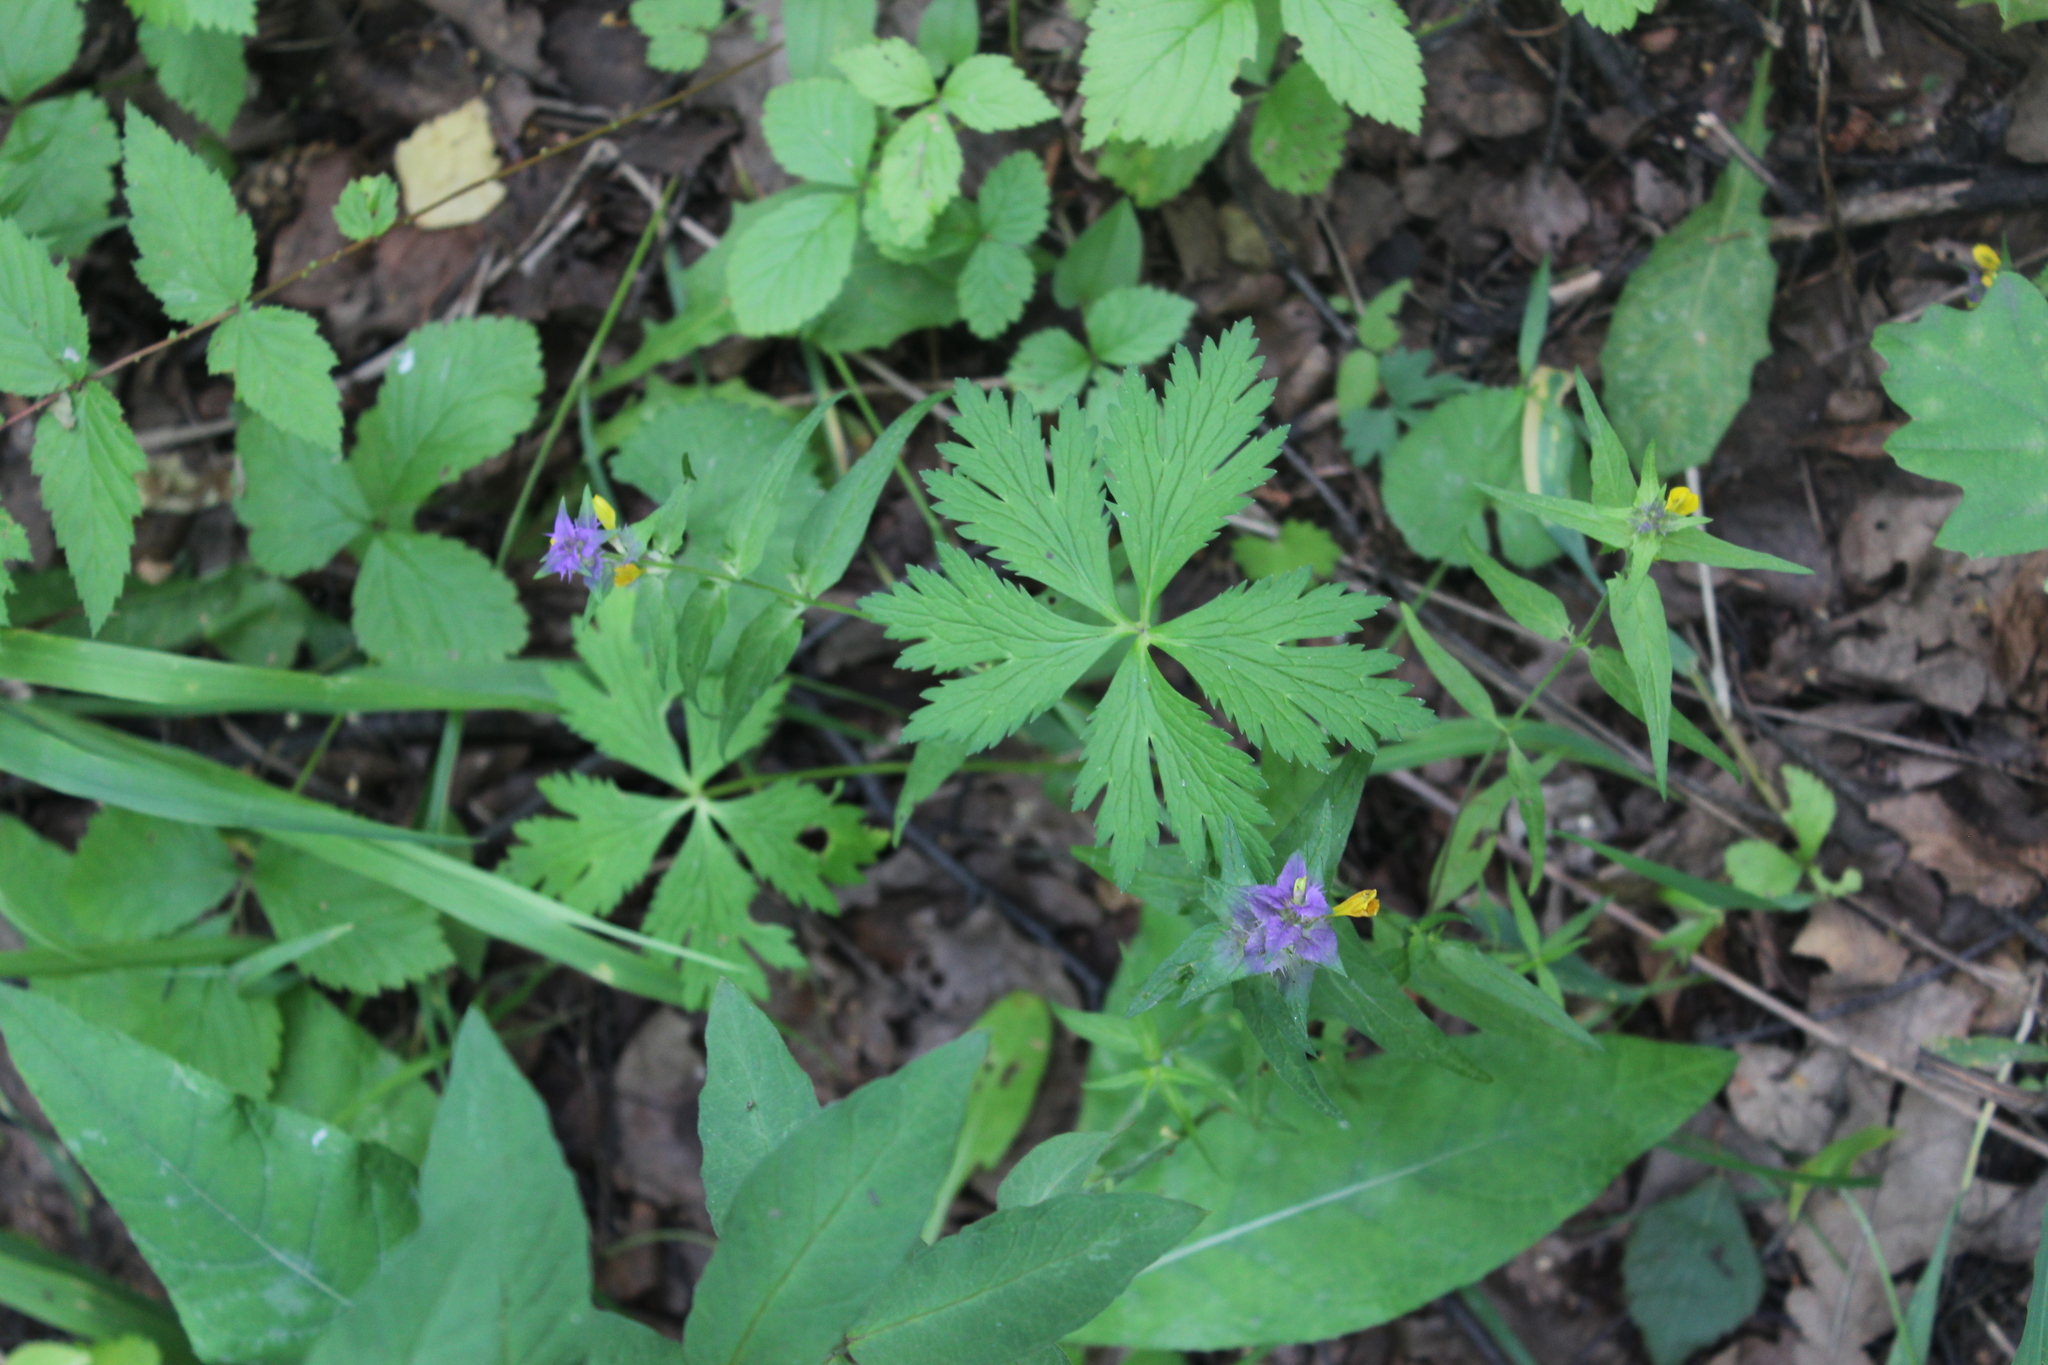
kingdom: Plantae
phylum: Tracheophyta
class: Magnoliopsida
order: Ranunculales
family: Ranunculaceae
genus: Trollius
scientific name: Trollius europaeus
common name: European globeflower
